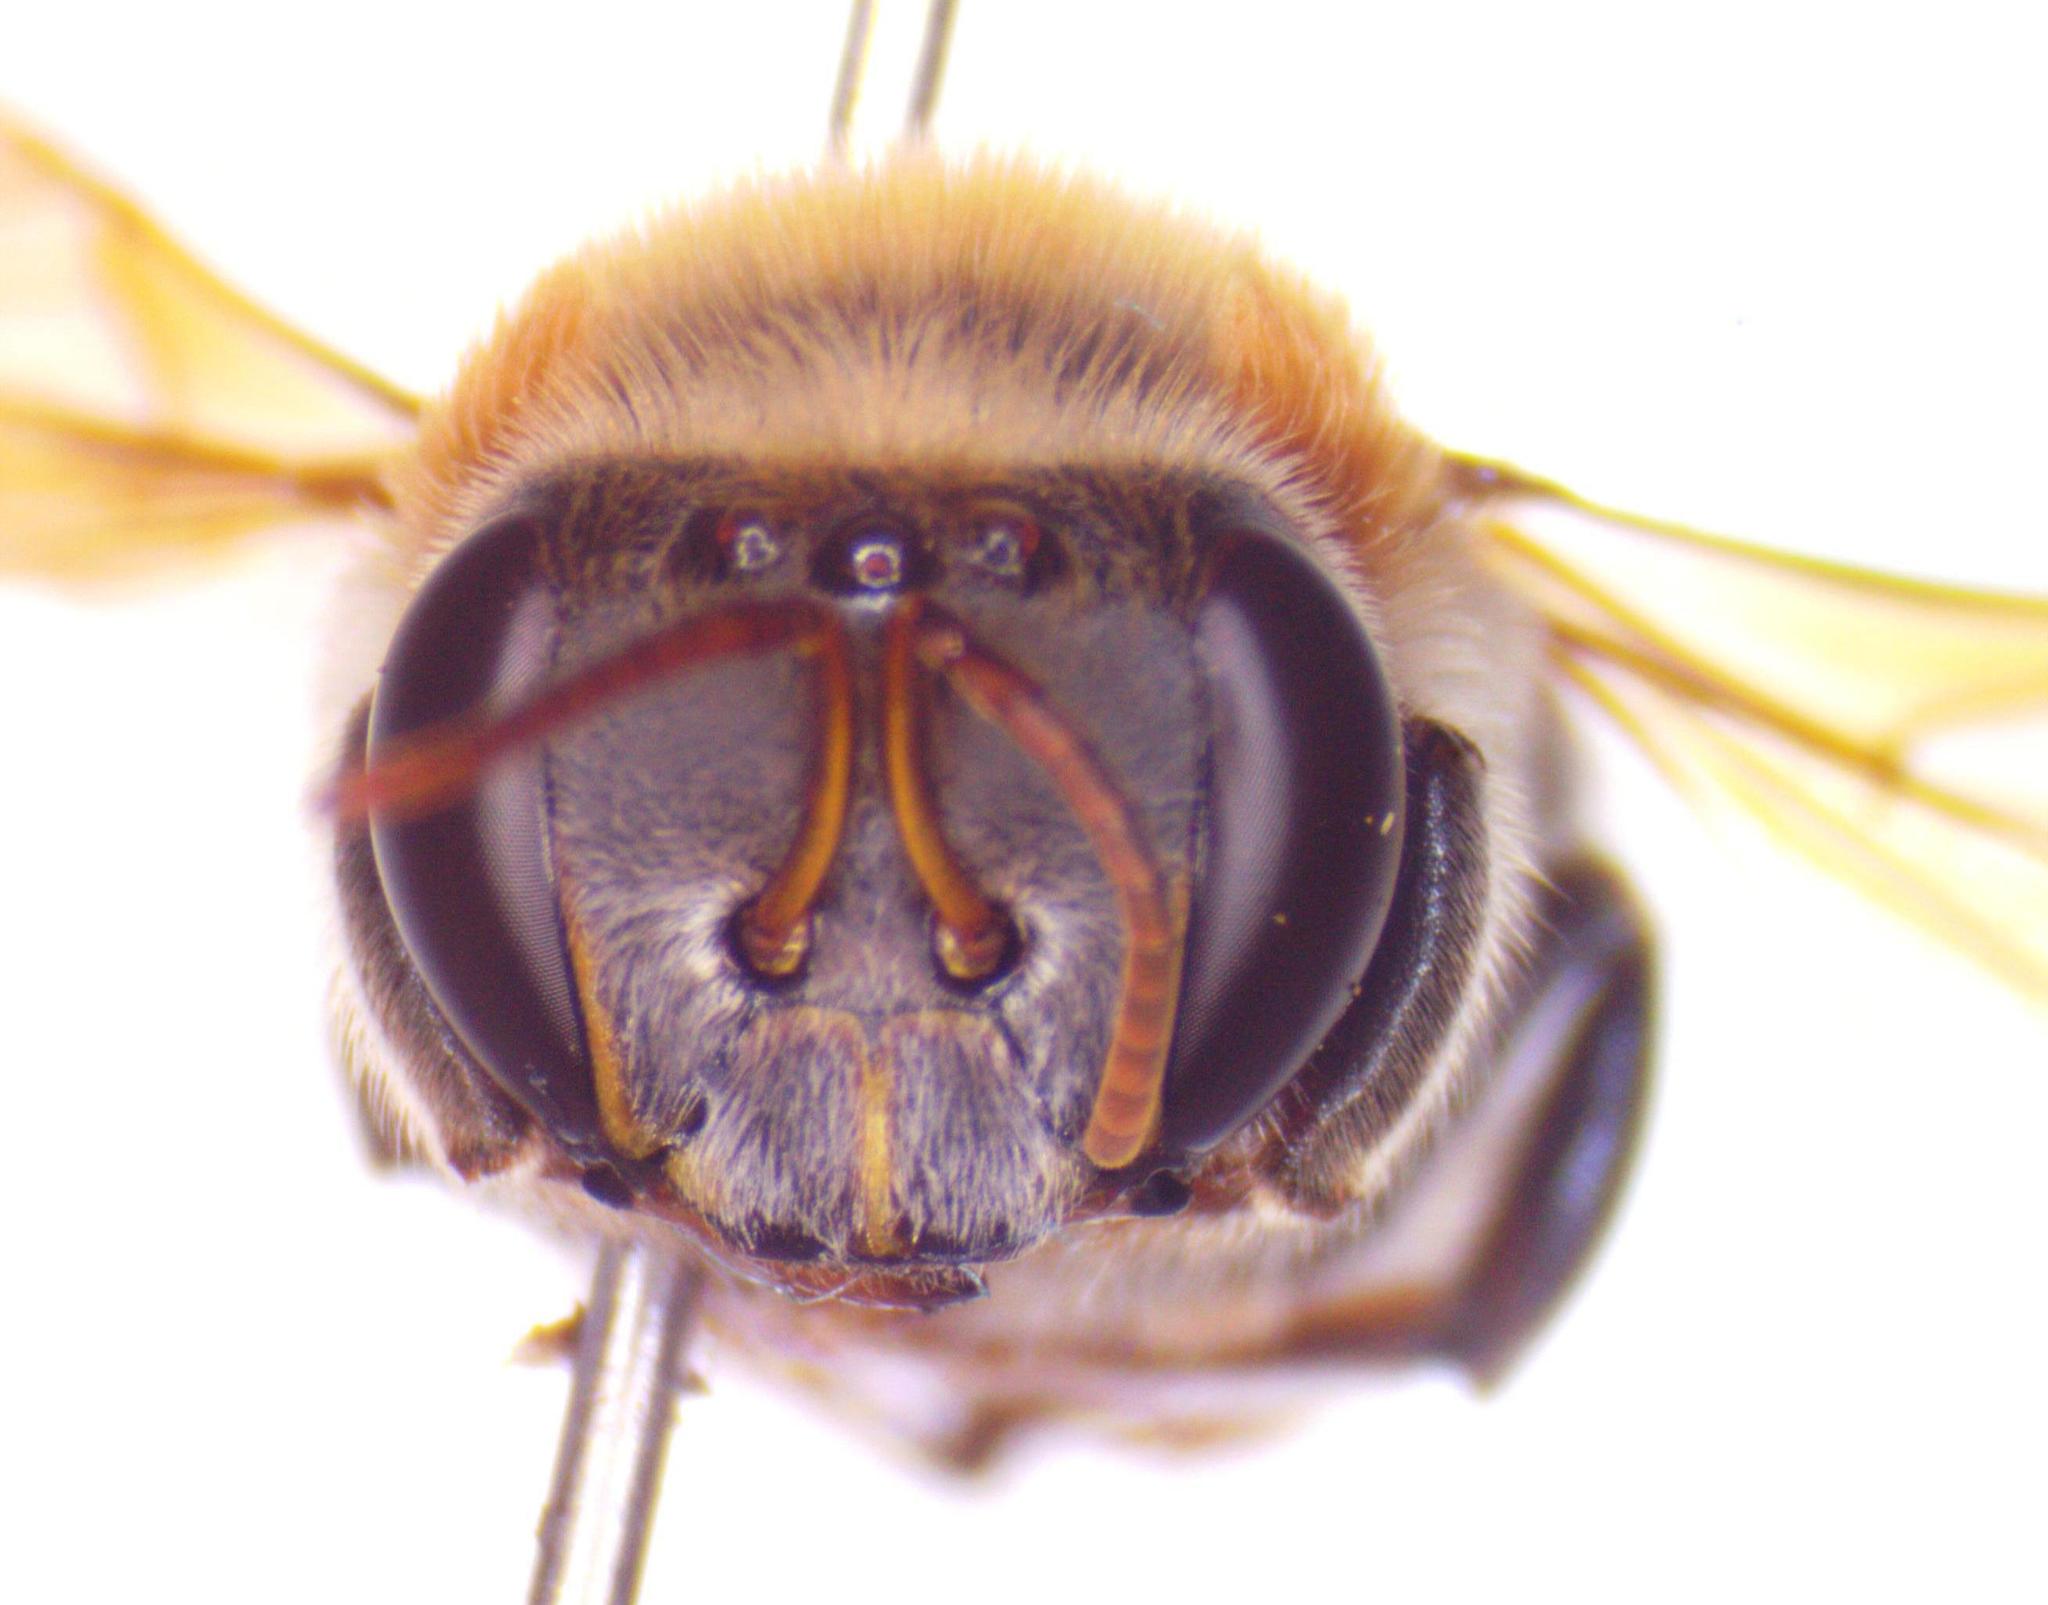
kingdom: Animalia
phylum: Arthropoda
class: Insecta
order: Hymenoptera
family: Apidae
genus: Melipona
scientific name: Melipona beecheii
